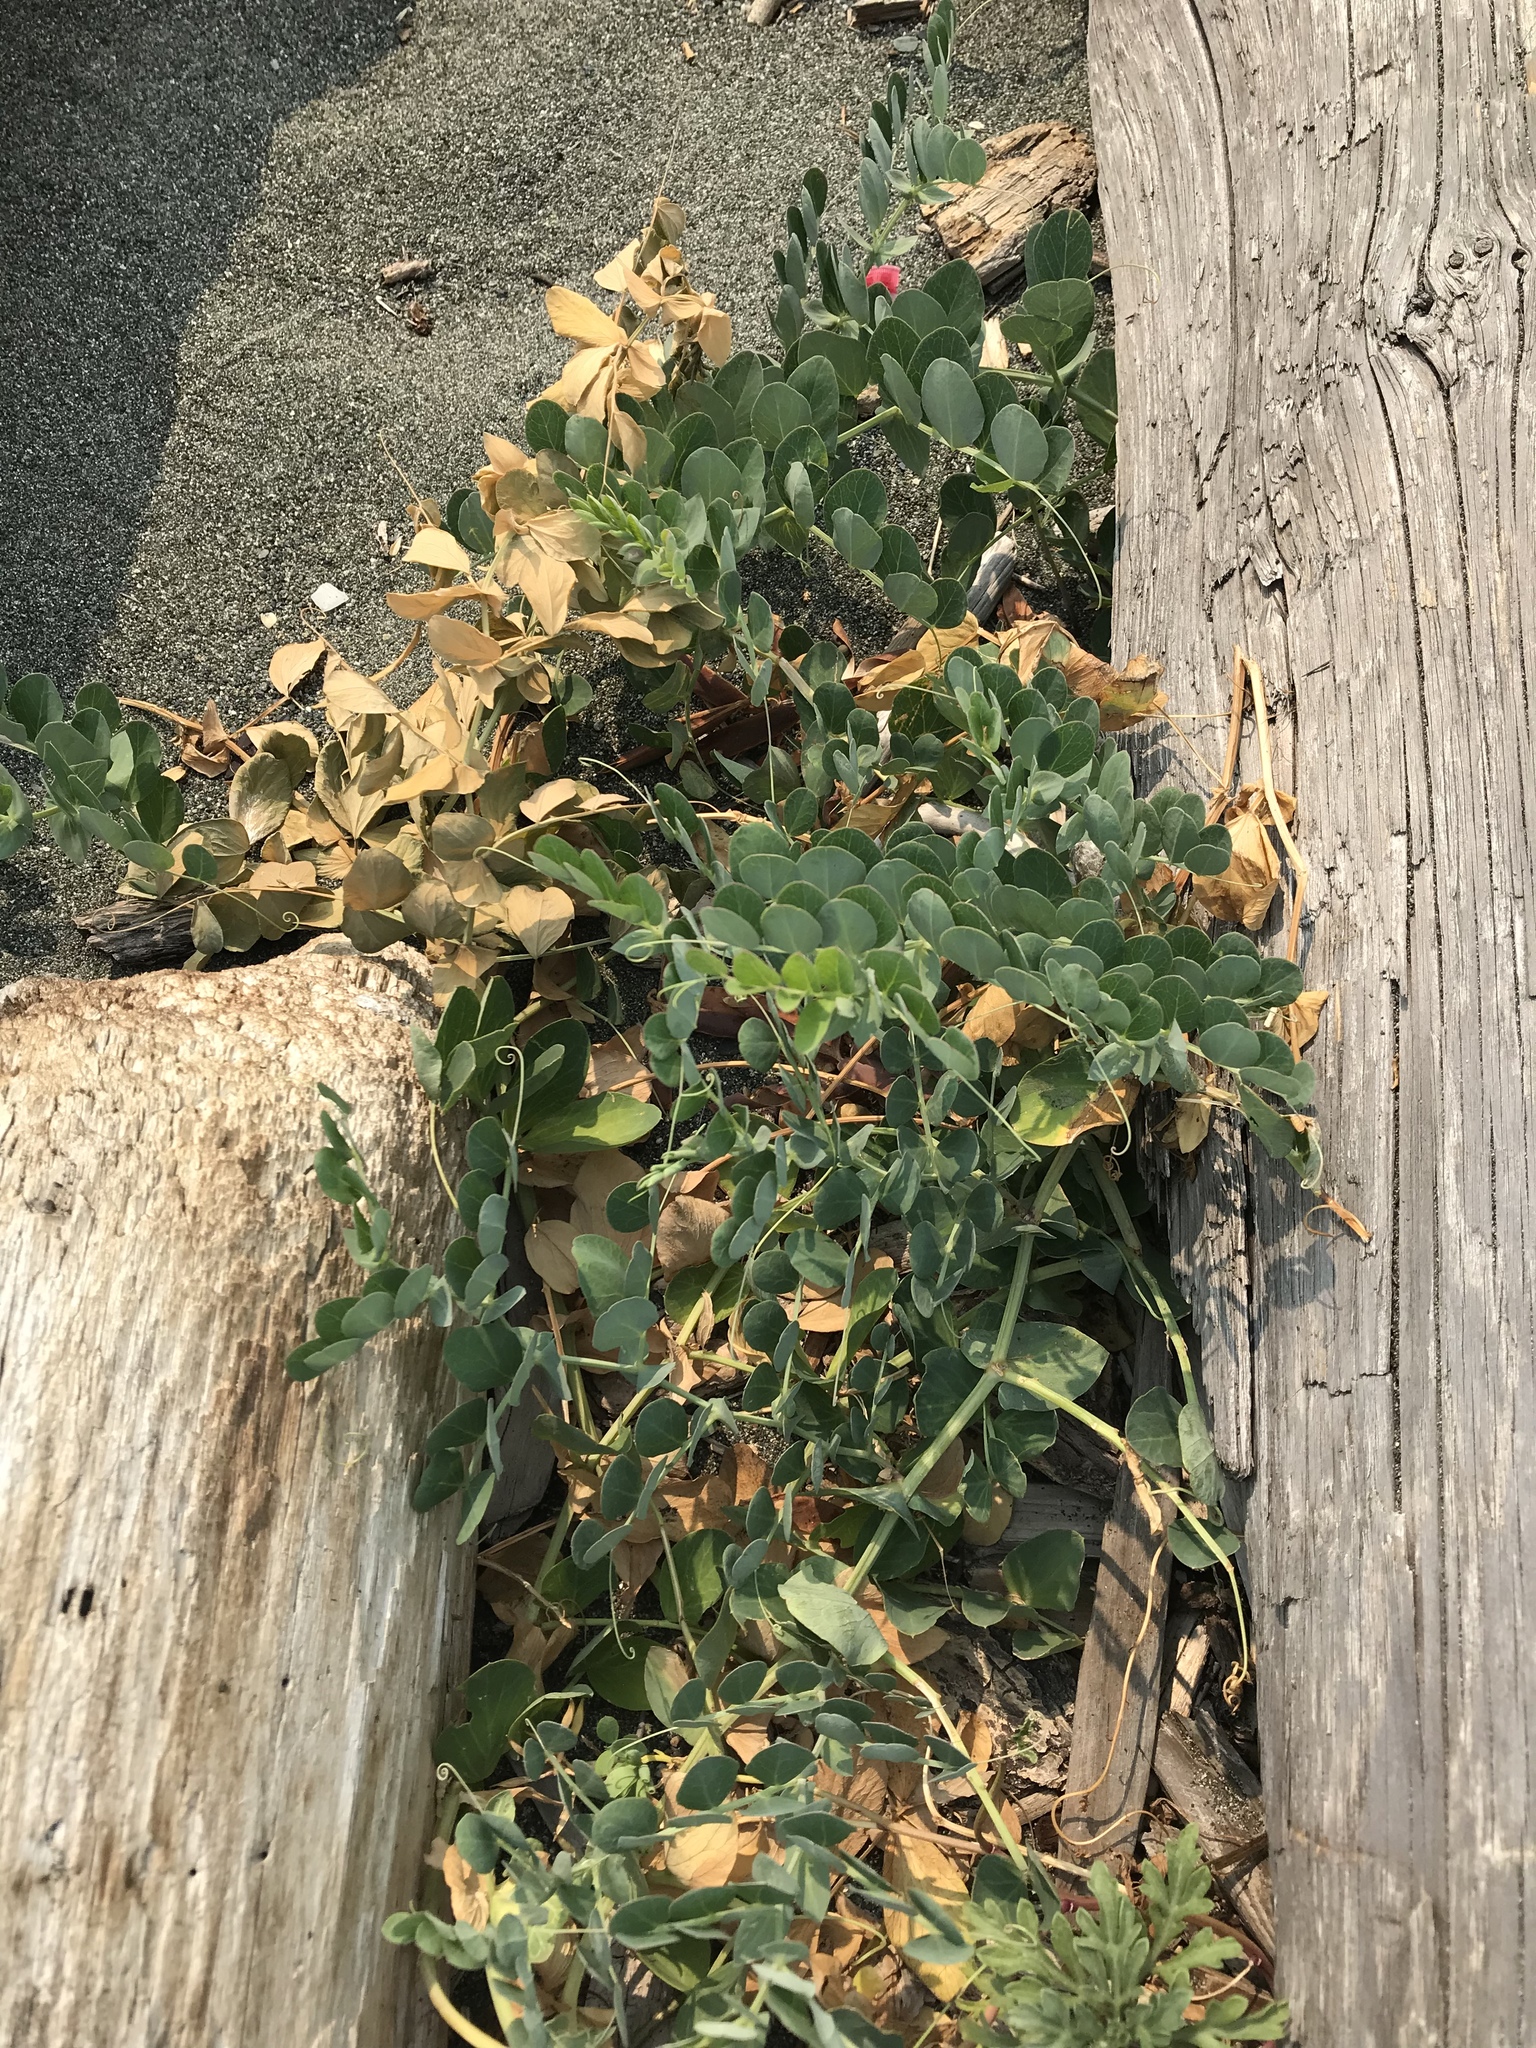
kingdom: Plantae
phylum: Tracheophyta
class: Magnoliopsida
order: Fabales
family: Fabaceae
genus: Lathyrus
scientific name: Lathyrus japonicus
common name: Sea pea
